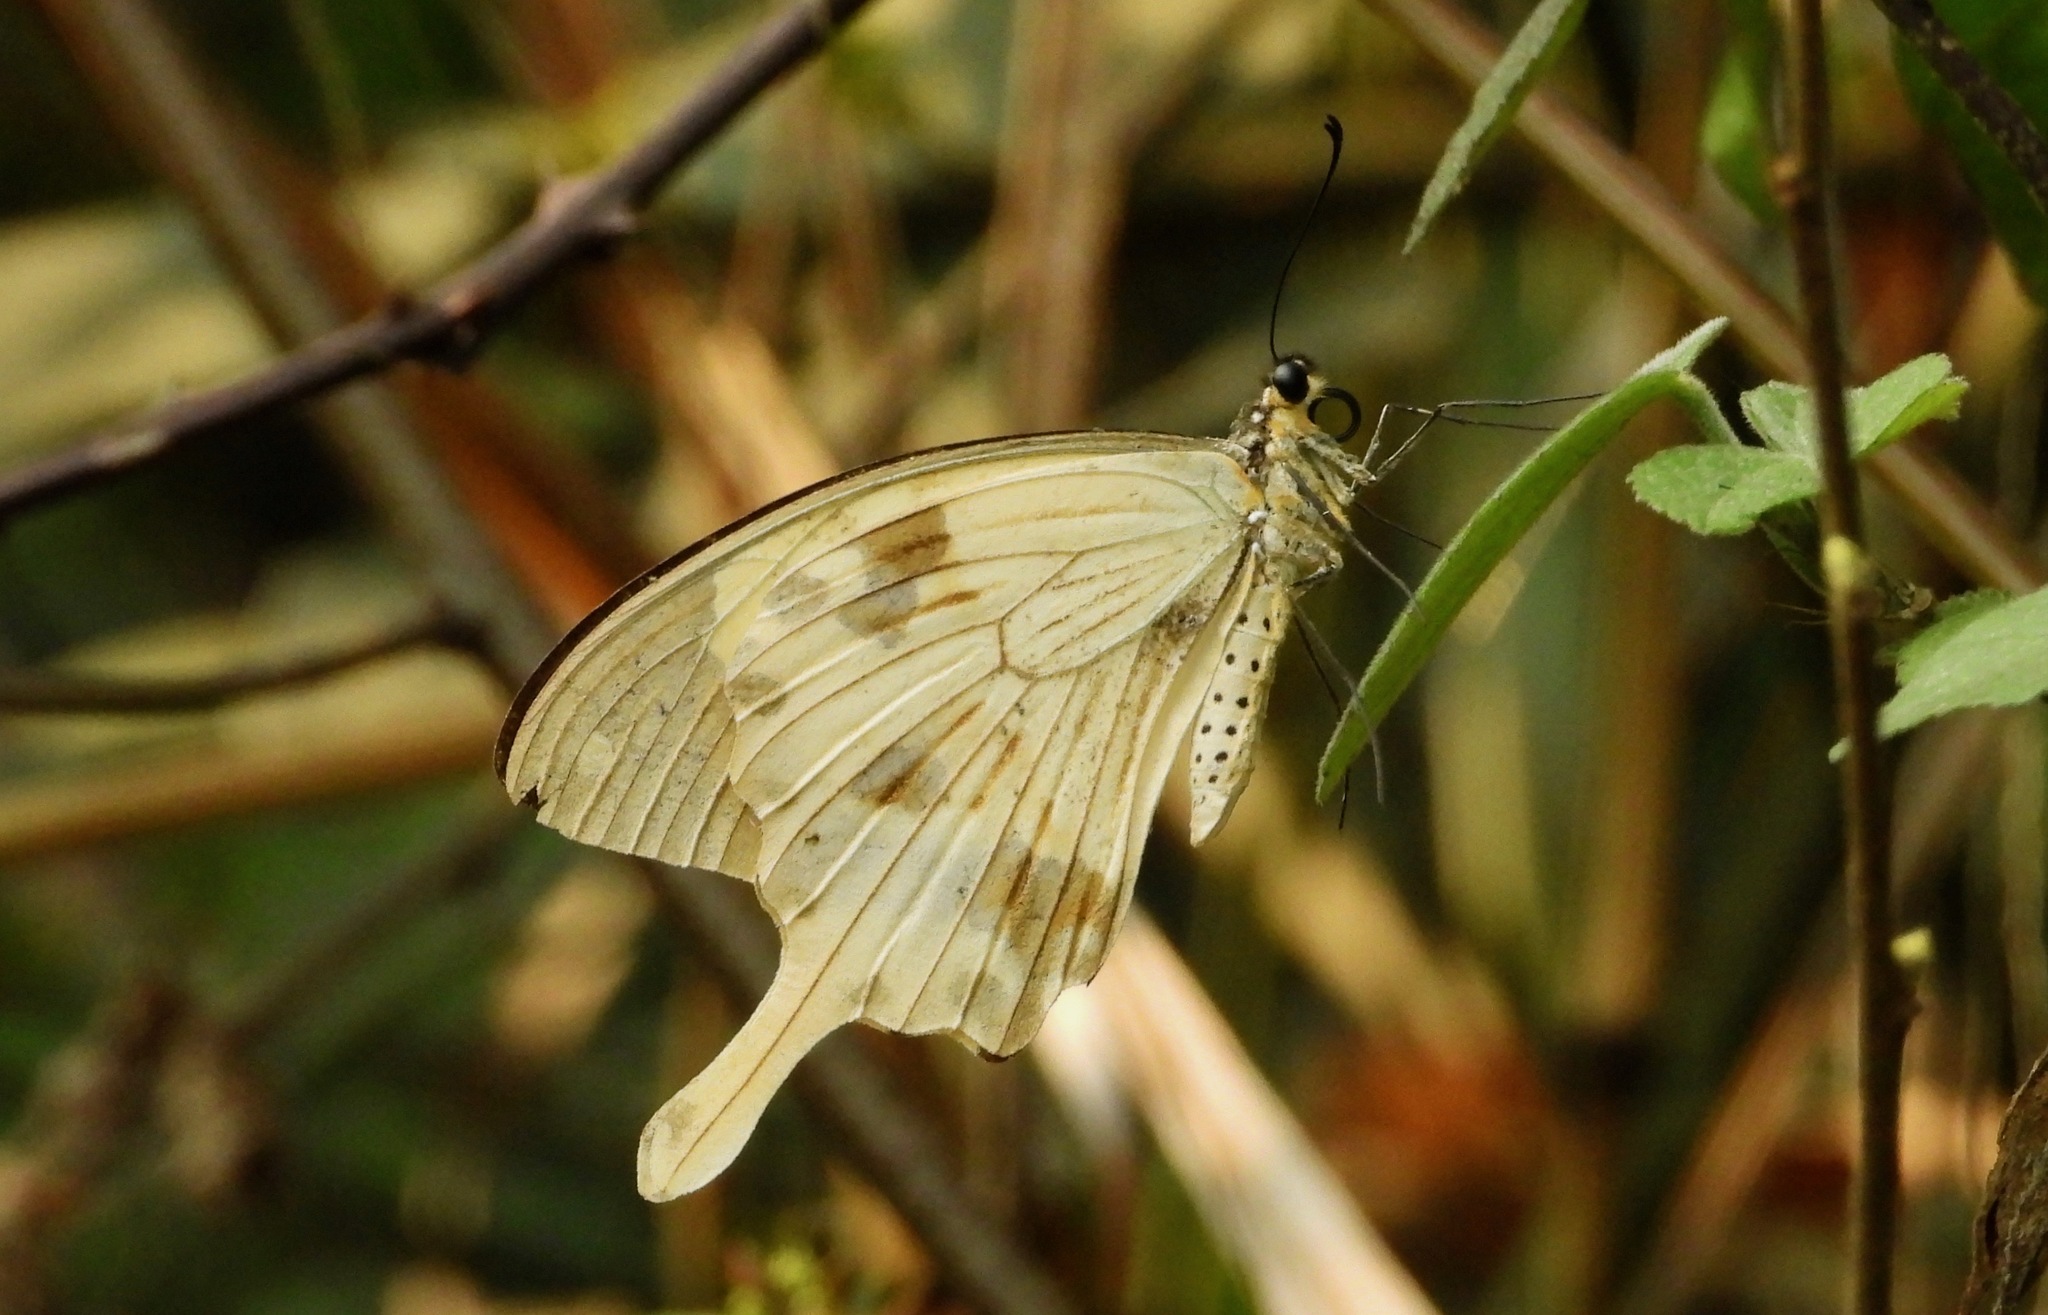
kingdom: Animalia
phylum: Arthropoda
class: Insecta
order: Lepidoptera
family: Papilionidae
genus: Papilio
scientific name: Papilio dardanus
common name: Flying handkerchief
